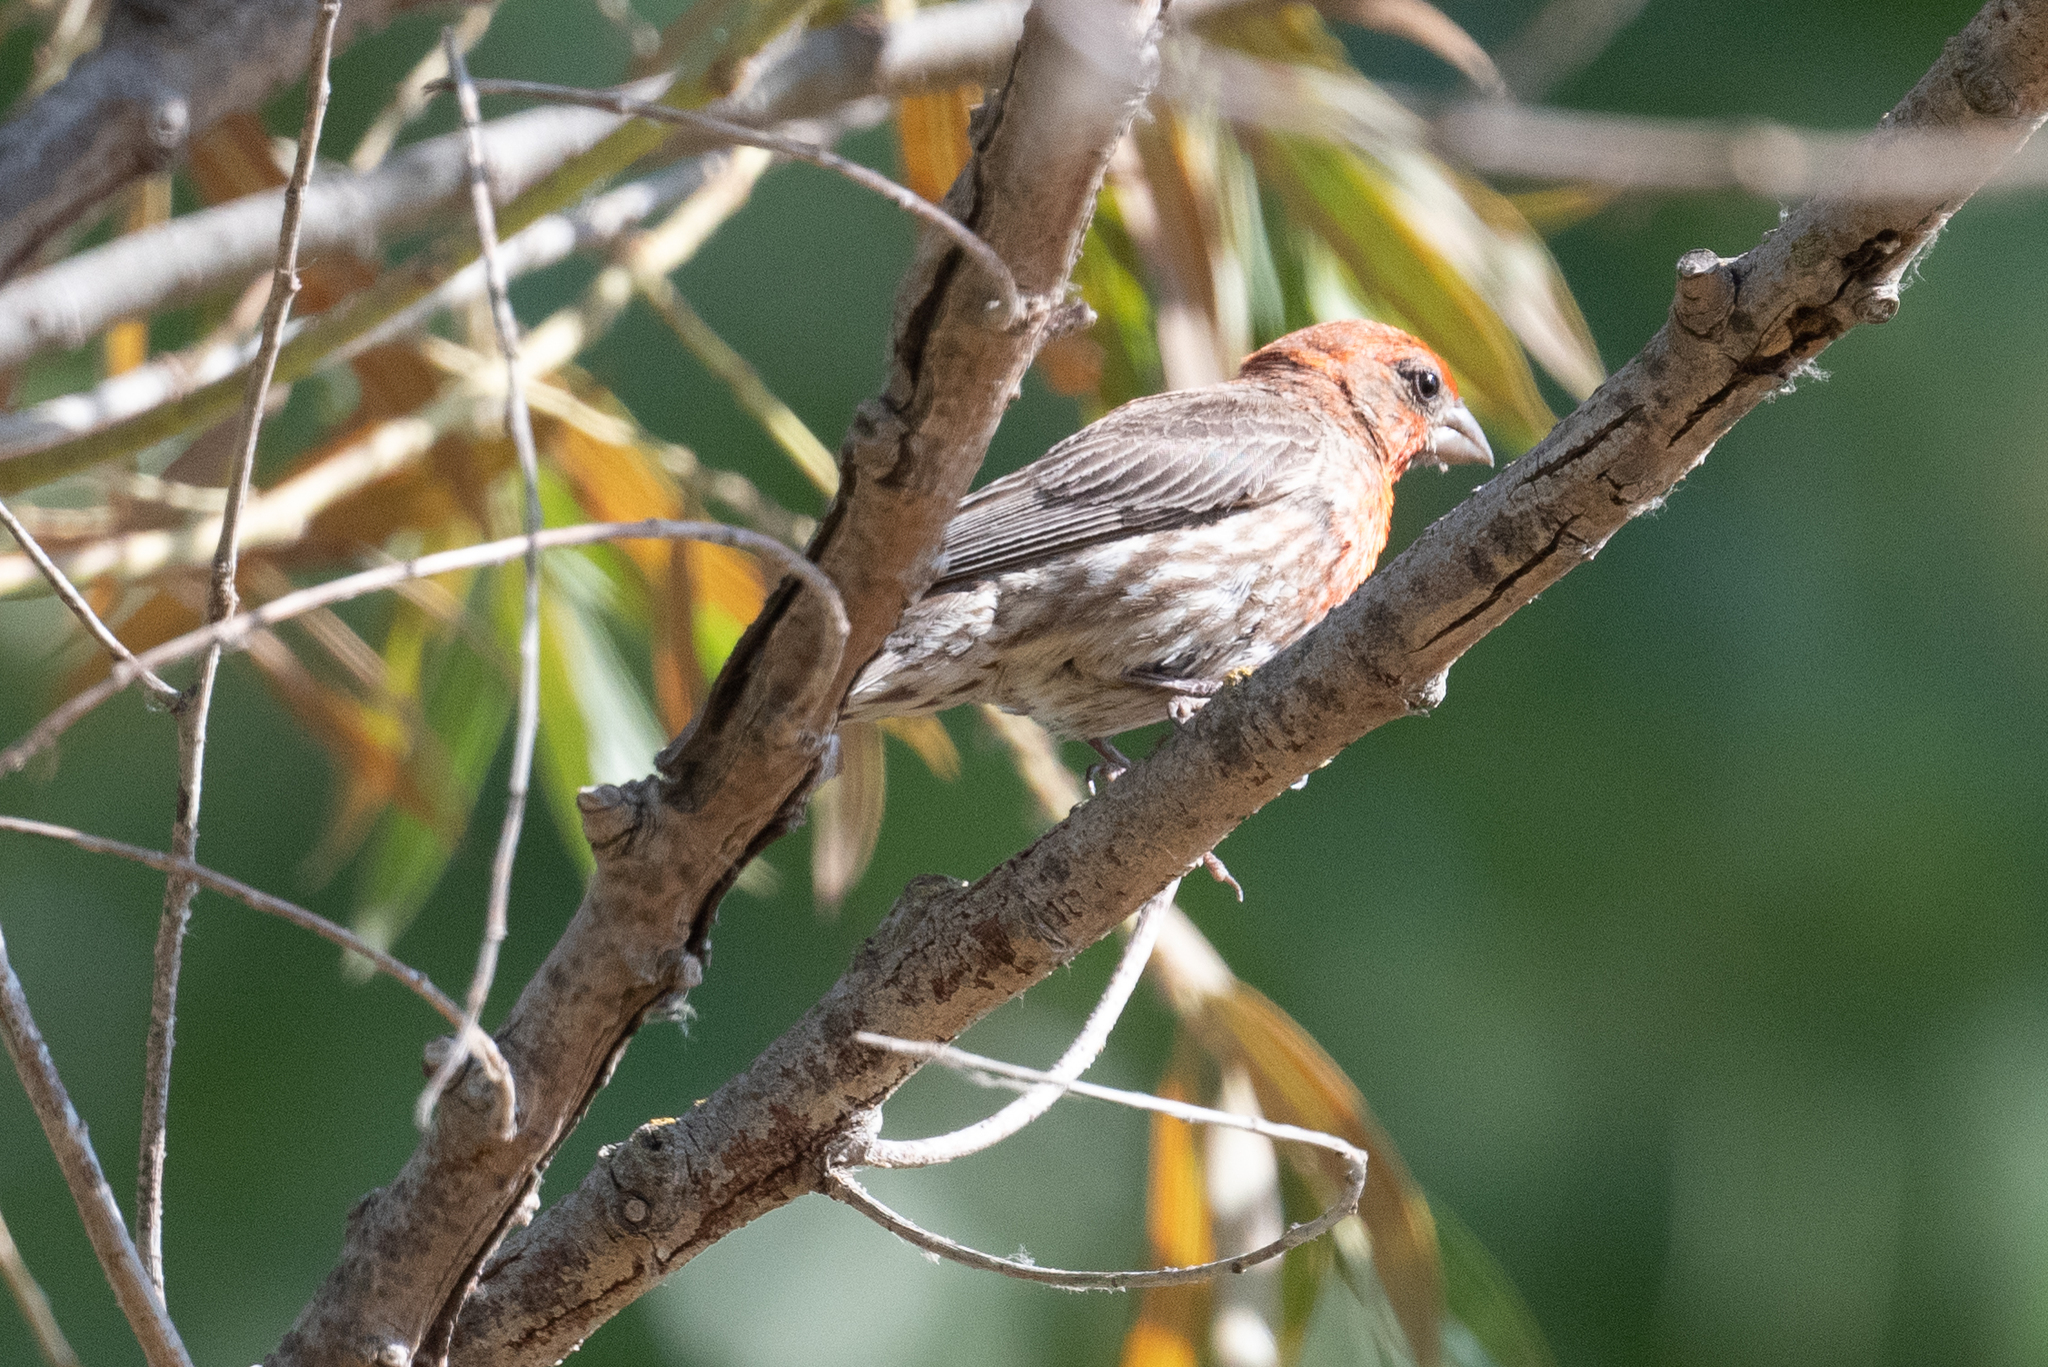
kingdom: Animalia
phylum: Chordata
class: Aves
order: Passeriformes
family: Fringillidae
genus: Haemorhous
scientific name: Haemorhous mexicanus
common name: House finch
